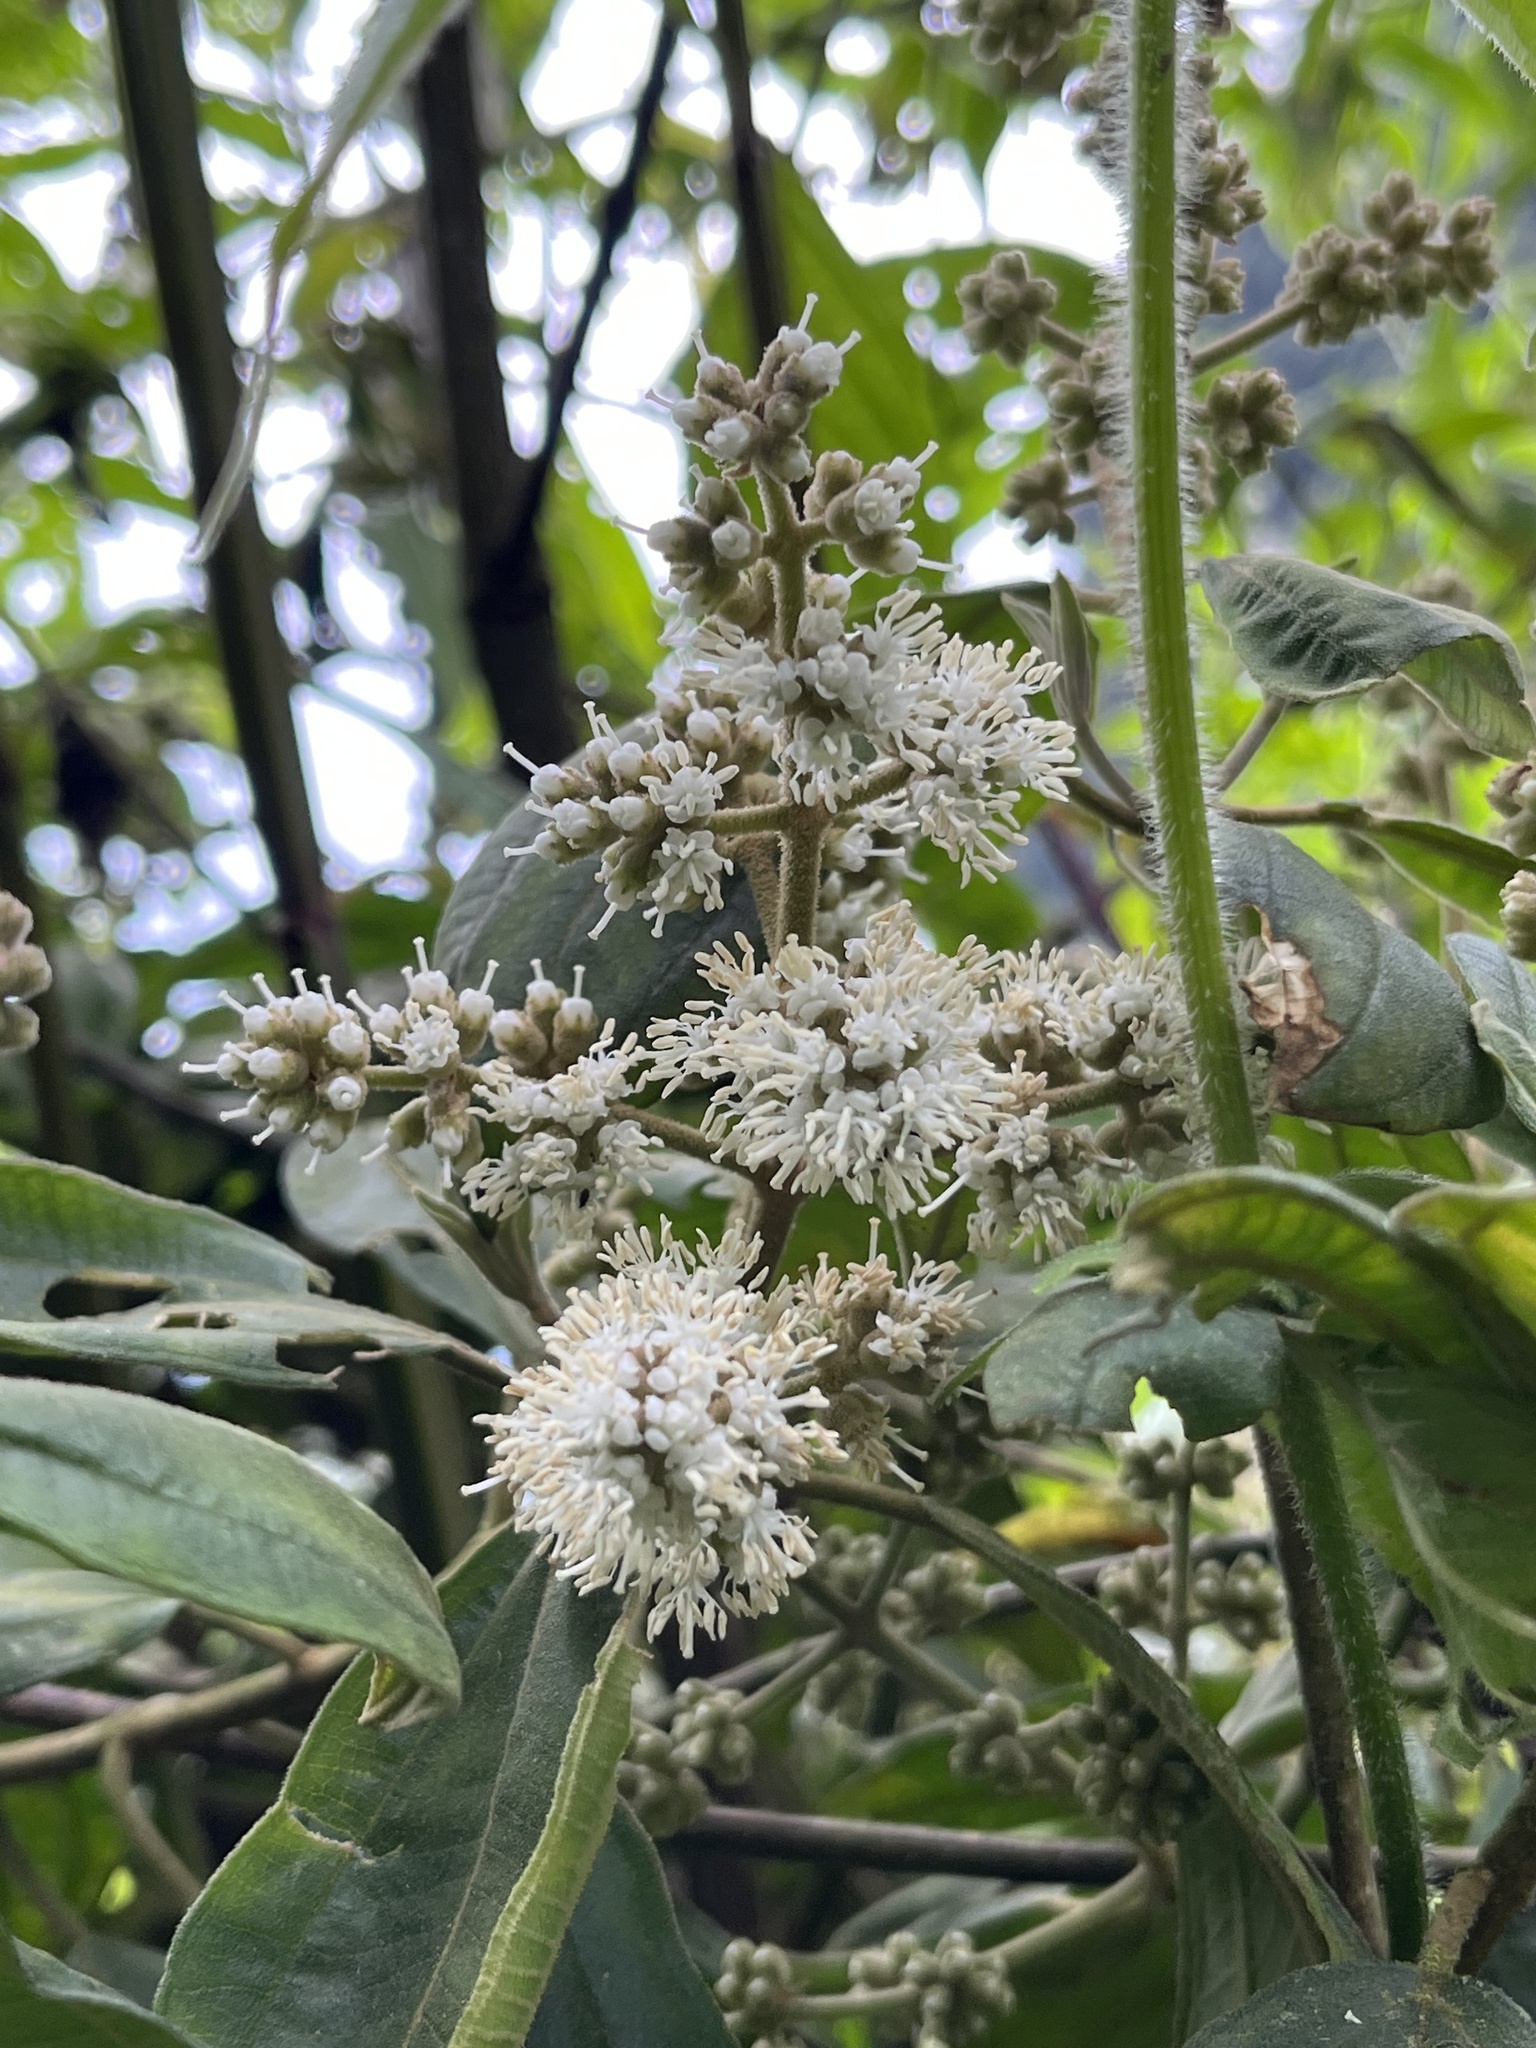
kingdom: Plantae
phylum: Tracheophyta
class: Magnoliopsida
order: Myrtales
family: Melastomataceae
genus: Miconia
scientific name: Miconia cataractae
